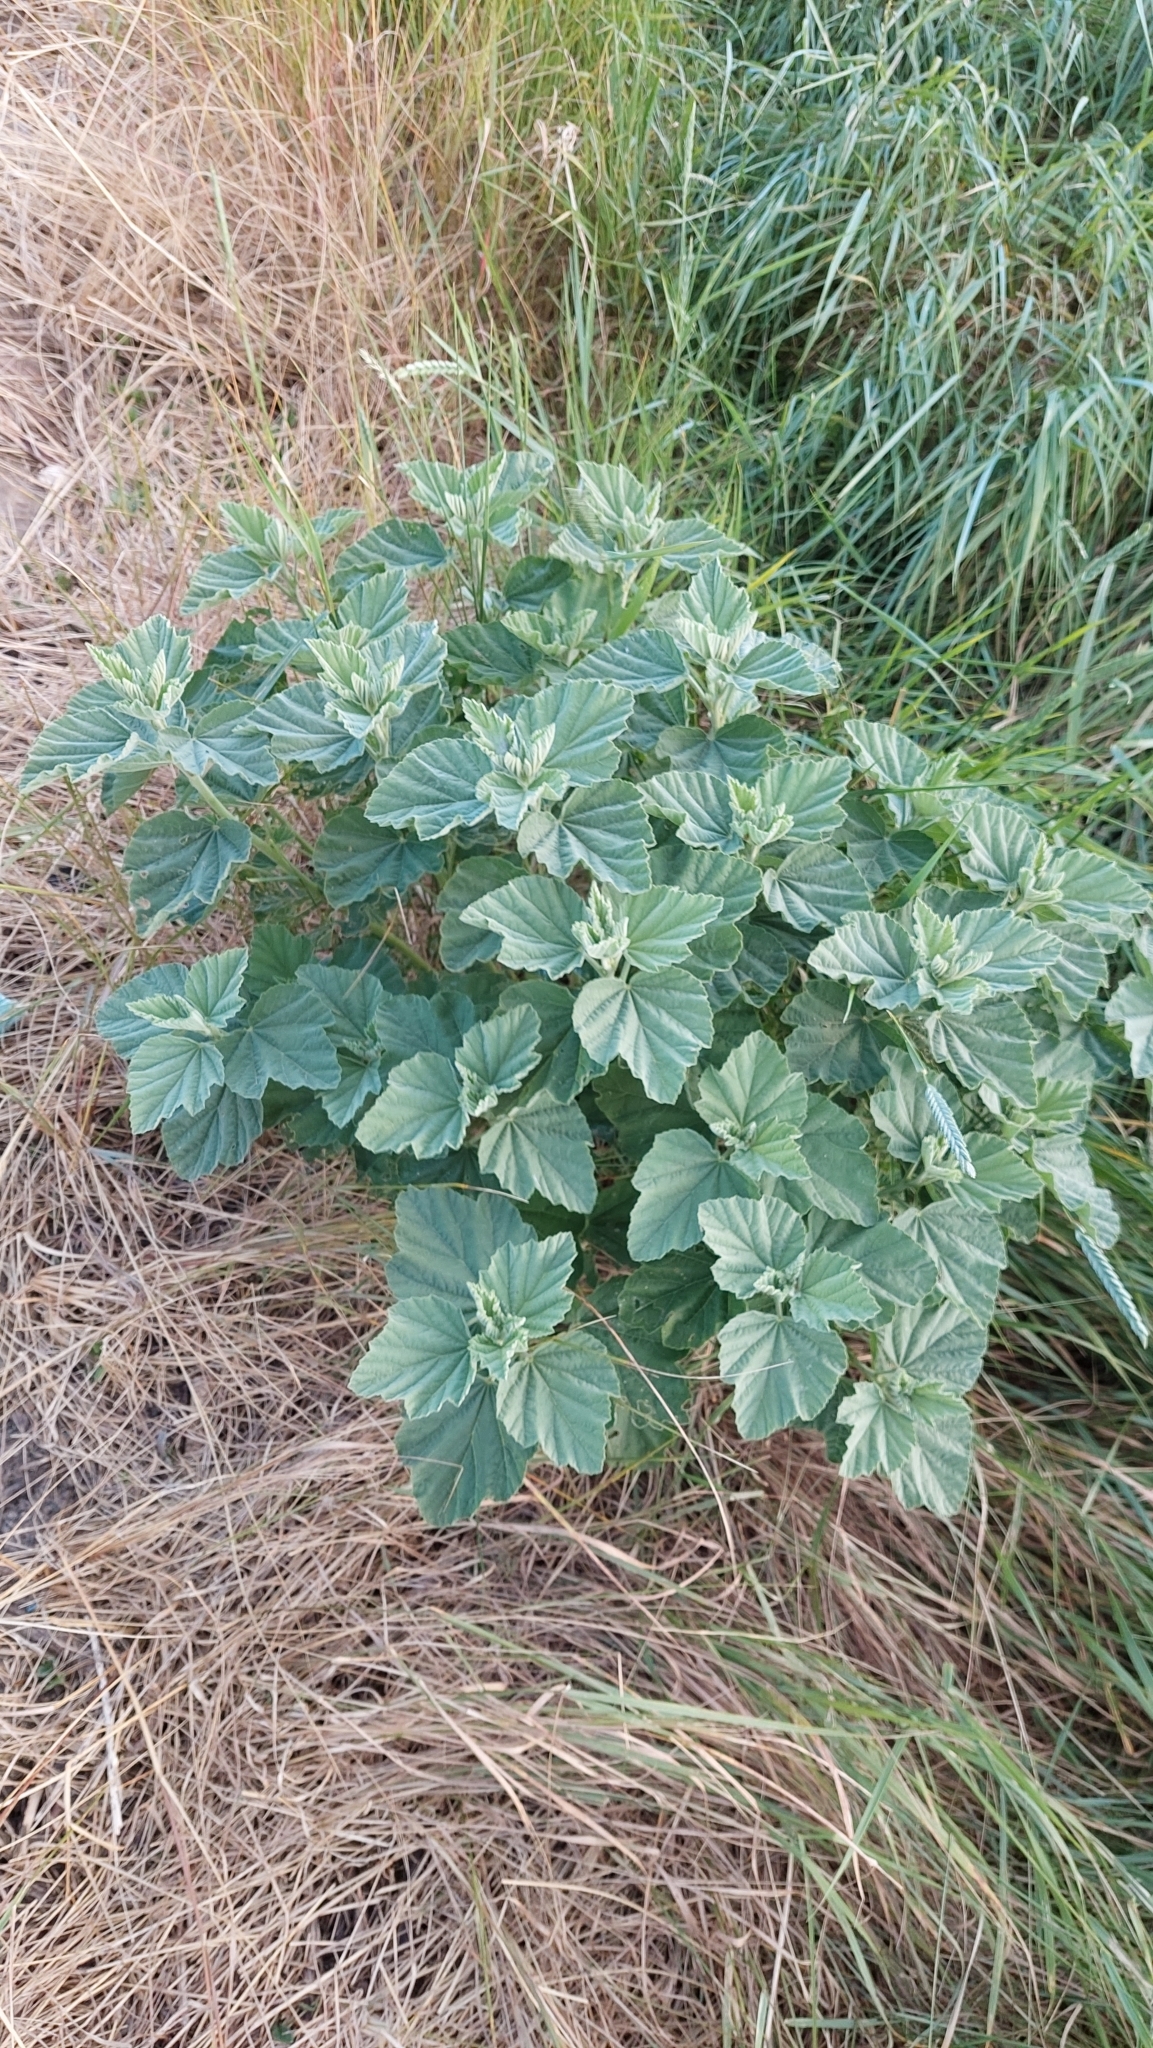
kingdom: Plantae
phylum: Tracheophyta
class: Magnoliopsida
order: Malvales
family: Malvaceae
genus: Althaea
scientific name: Althaea officinalis
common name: Marsh-mallow
